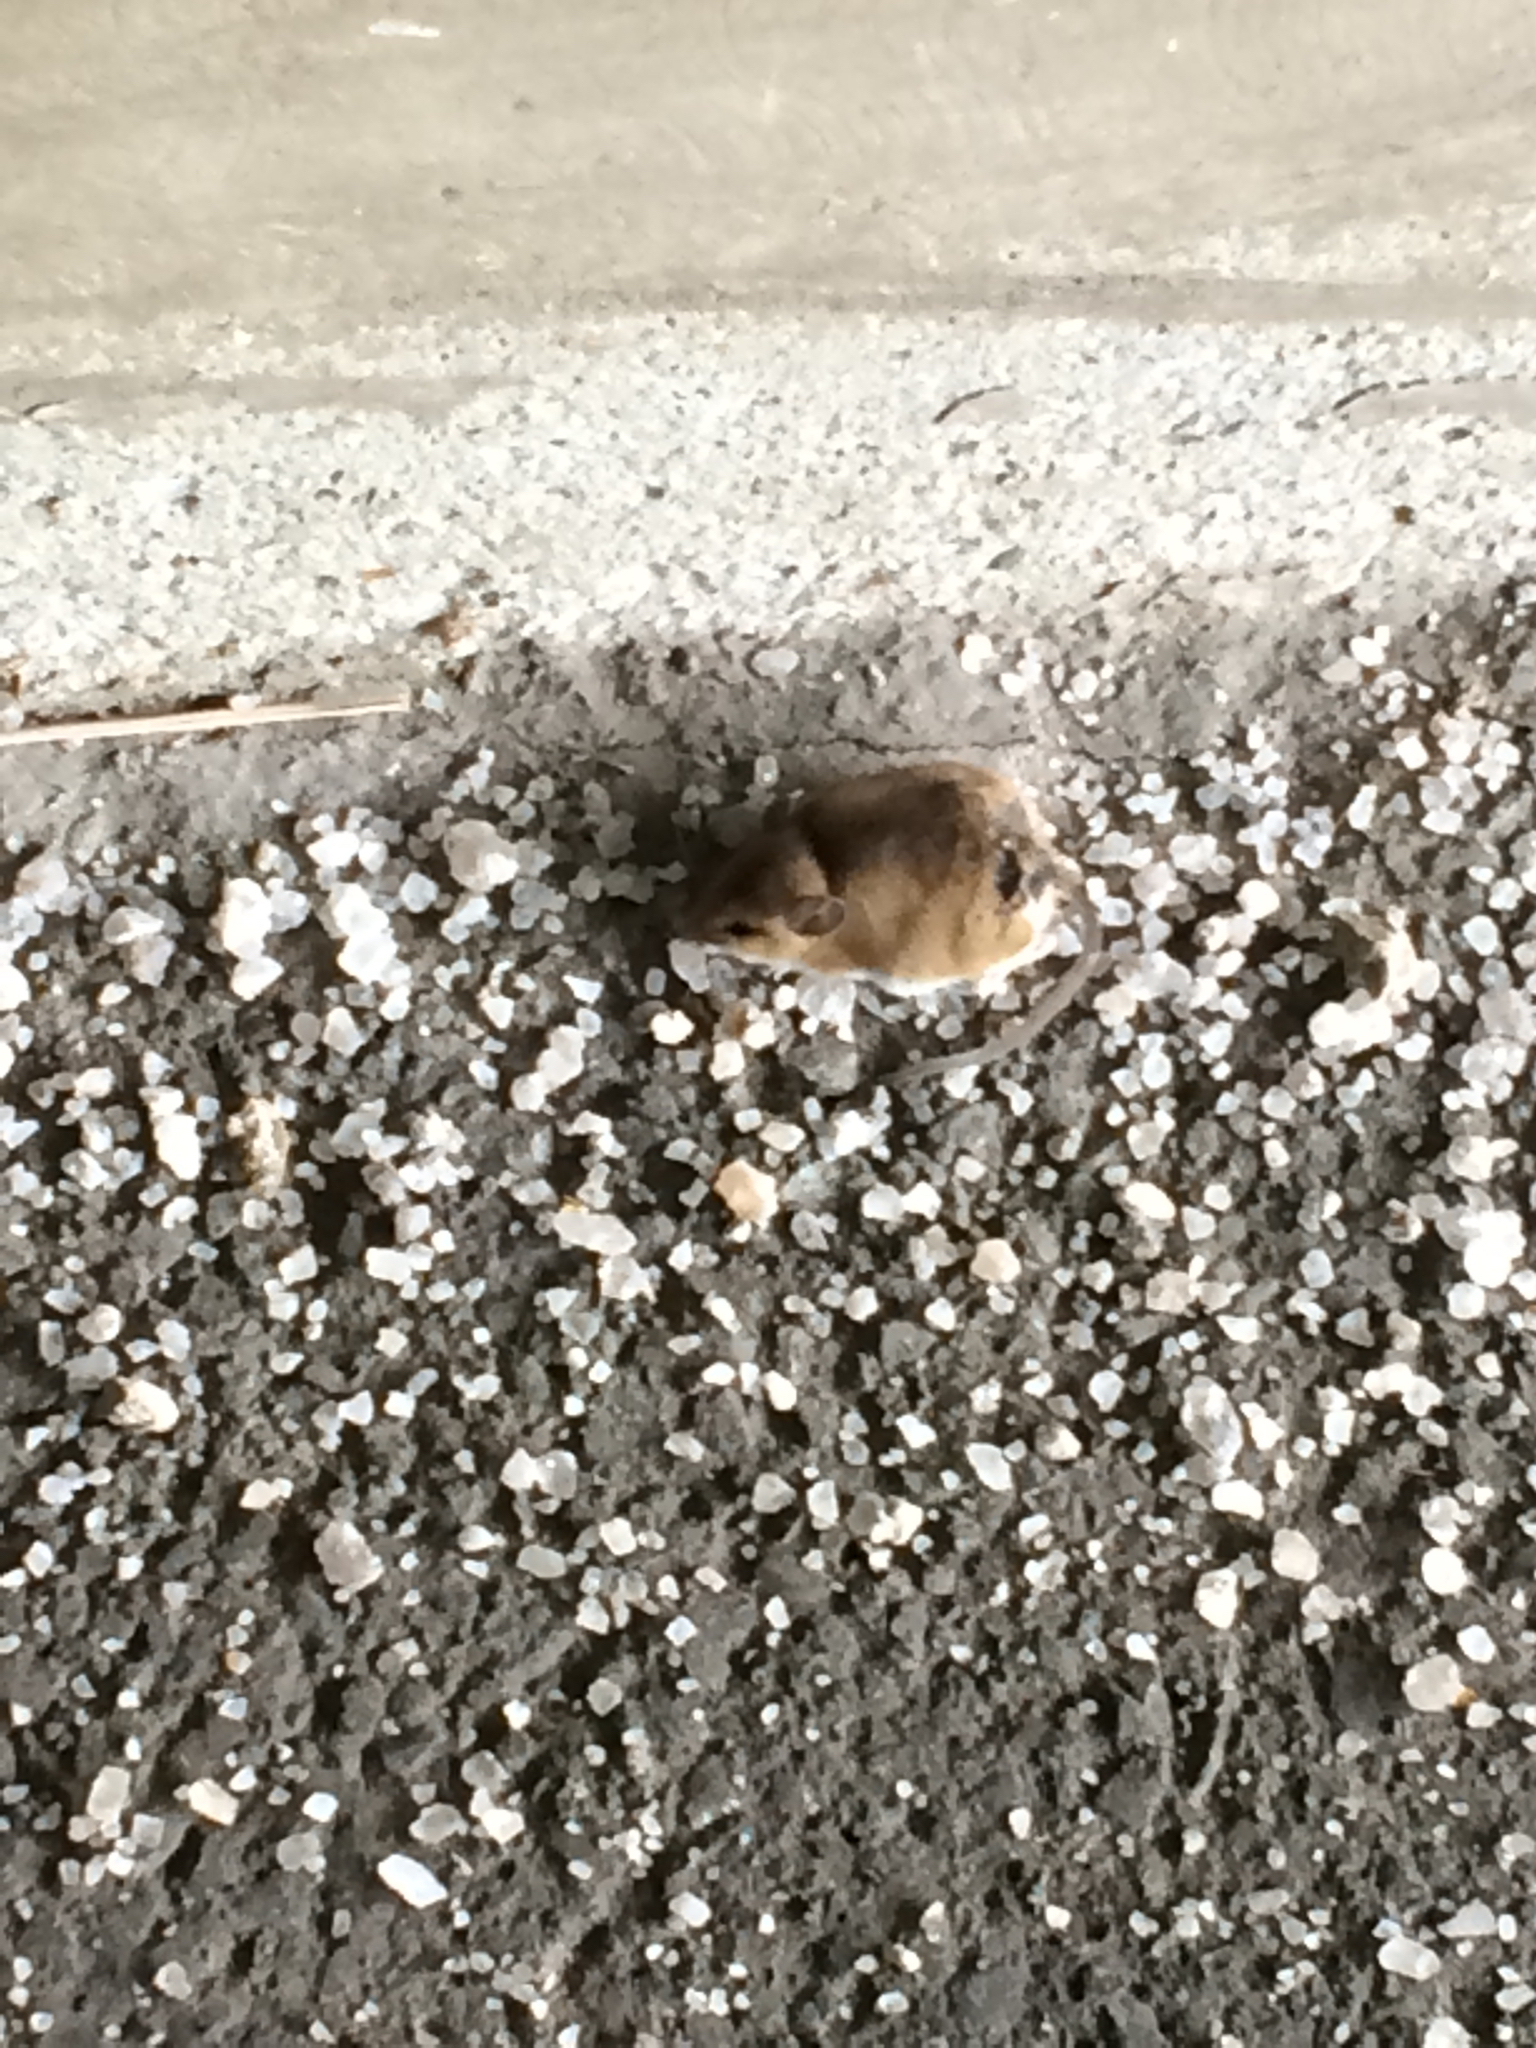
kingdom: Animalia
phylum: Chordata
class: Mammalia
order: Rodentia
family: Cricetidae
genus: Peromyscus
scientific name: Peromyscus maniculatus
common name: Deer mouse
